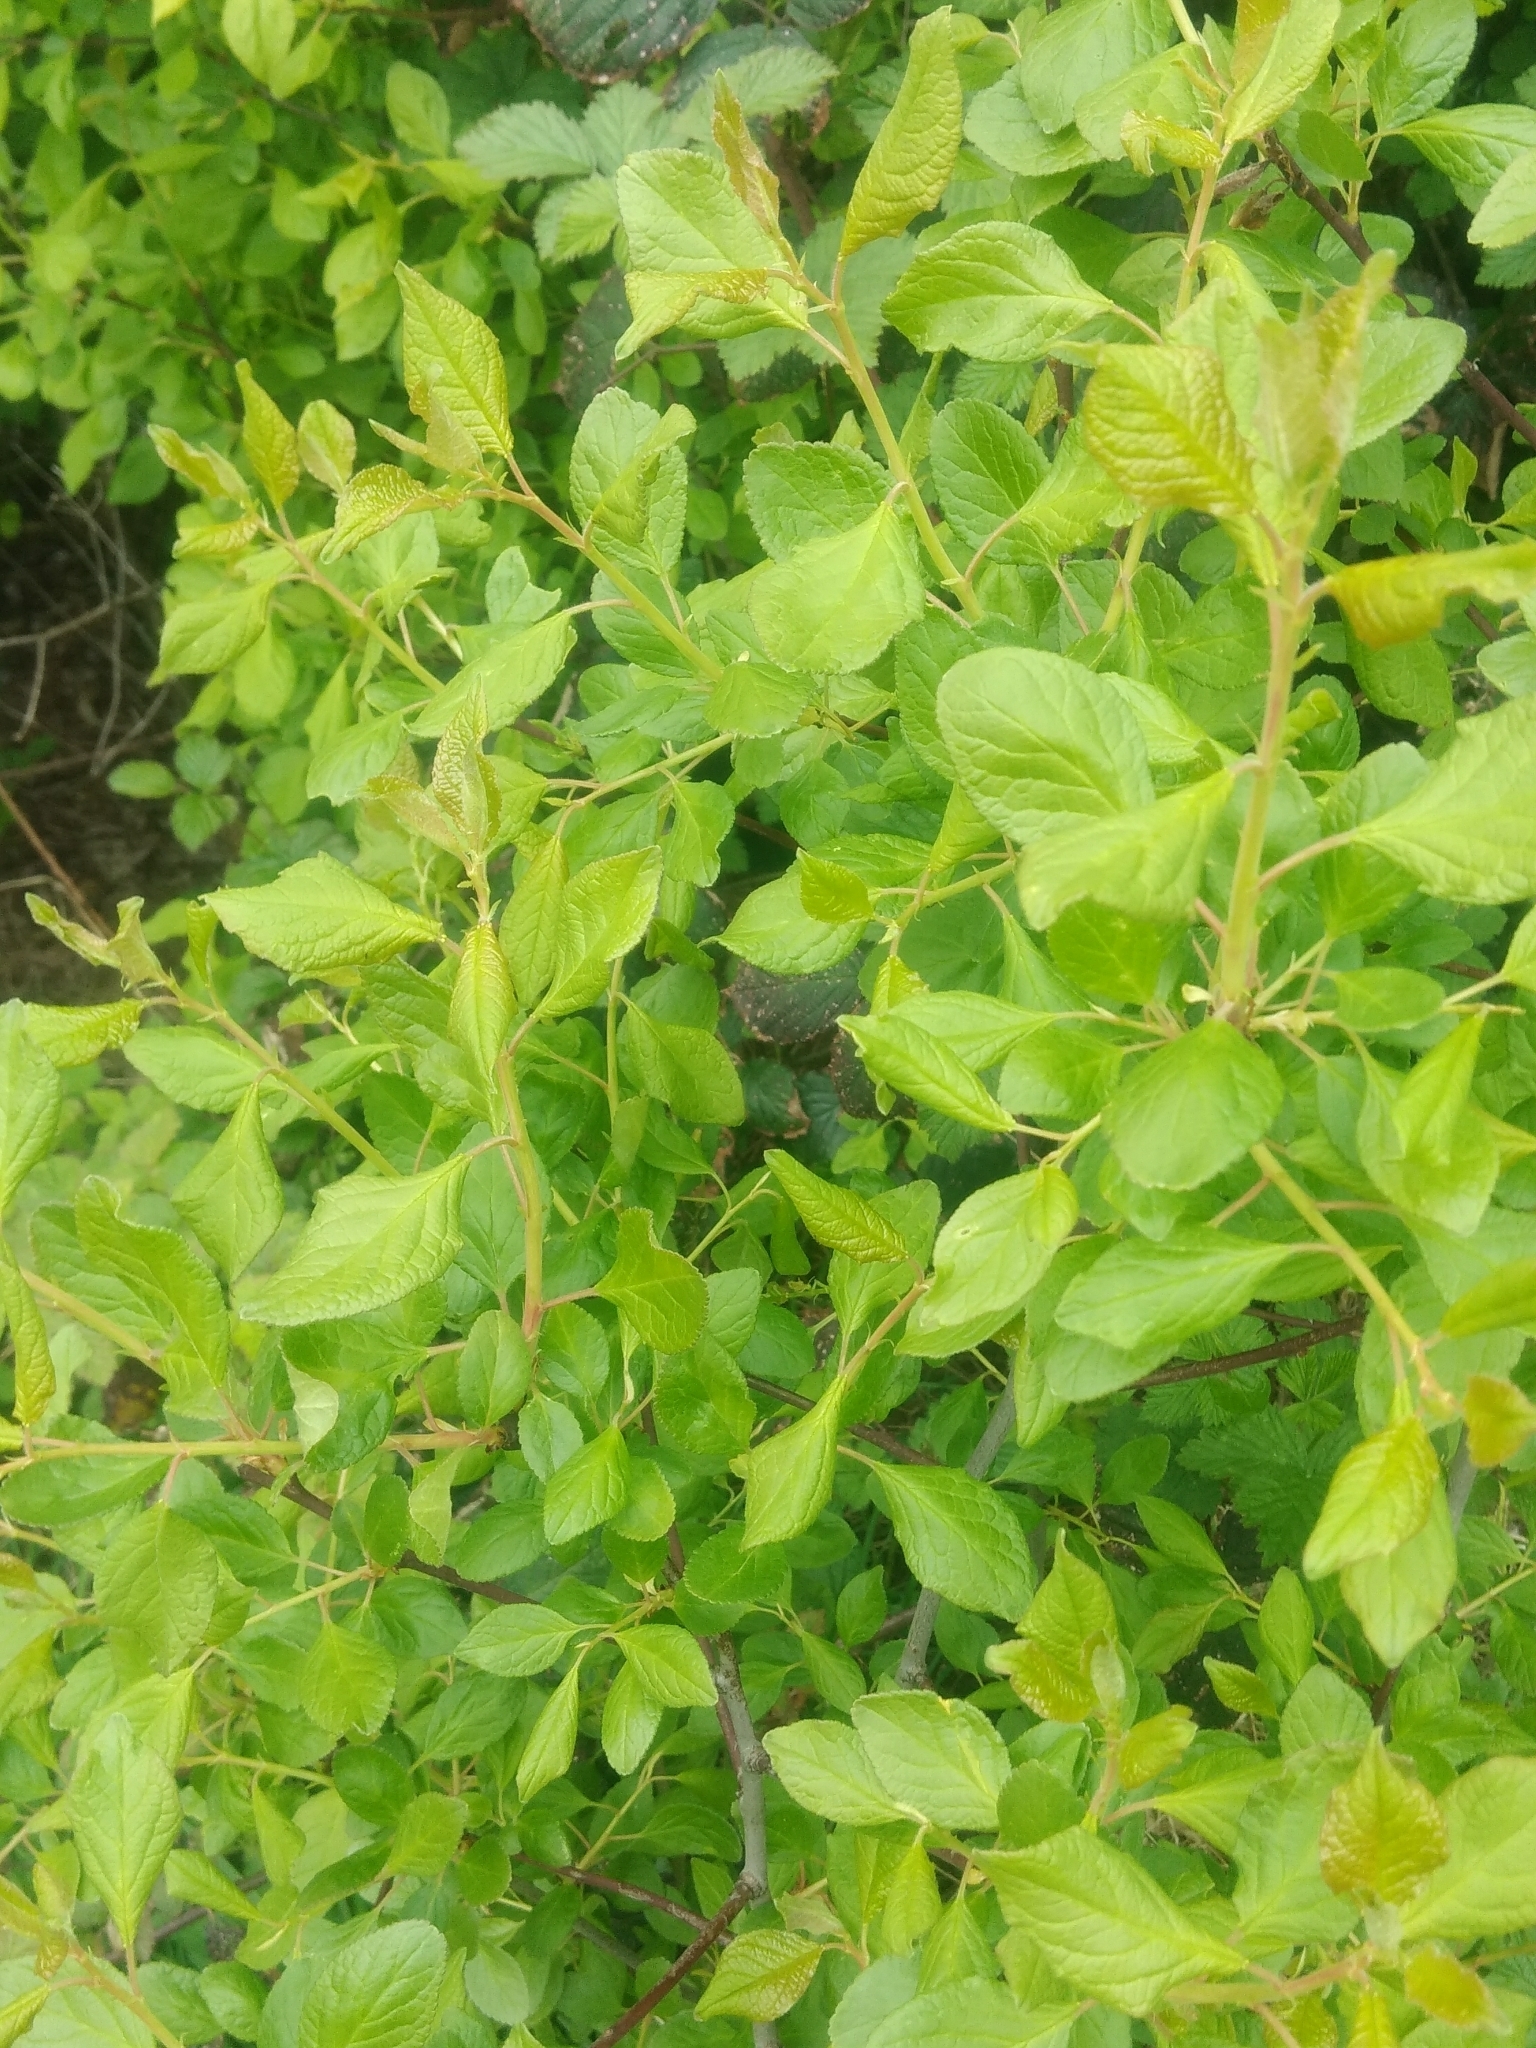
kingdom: Plantae
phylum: Tracheophyta
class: Magnoliopsida
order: Rosales
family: Rosaceae
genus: Prunus
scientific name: Prunus domestica
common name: Wild plum
